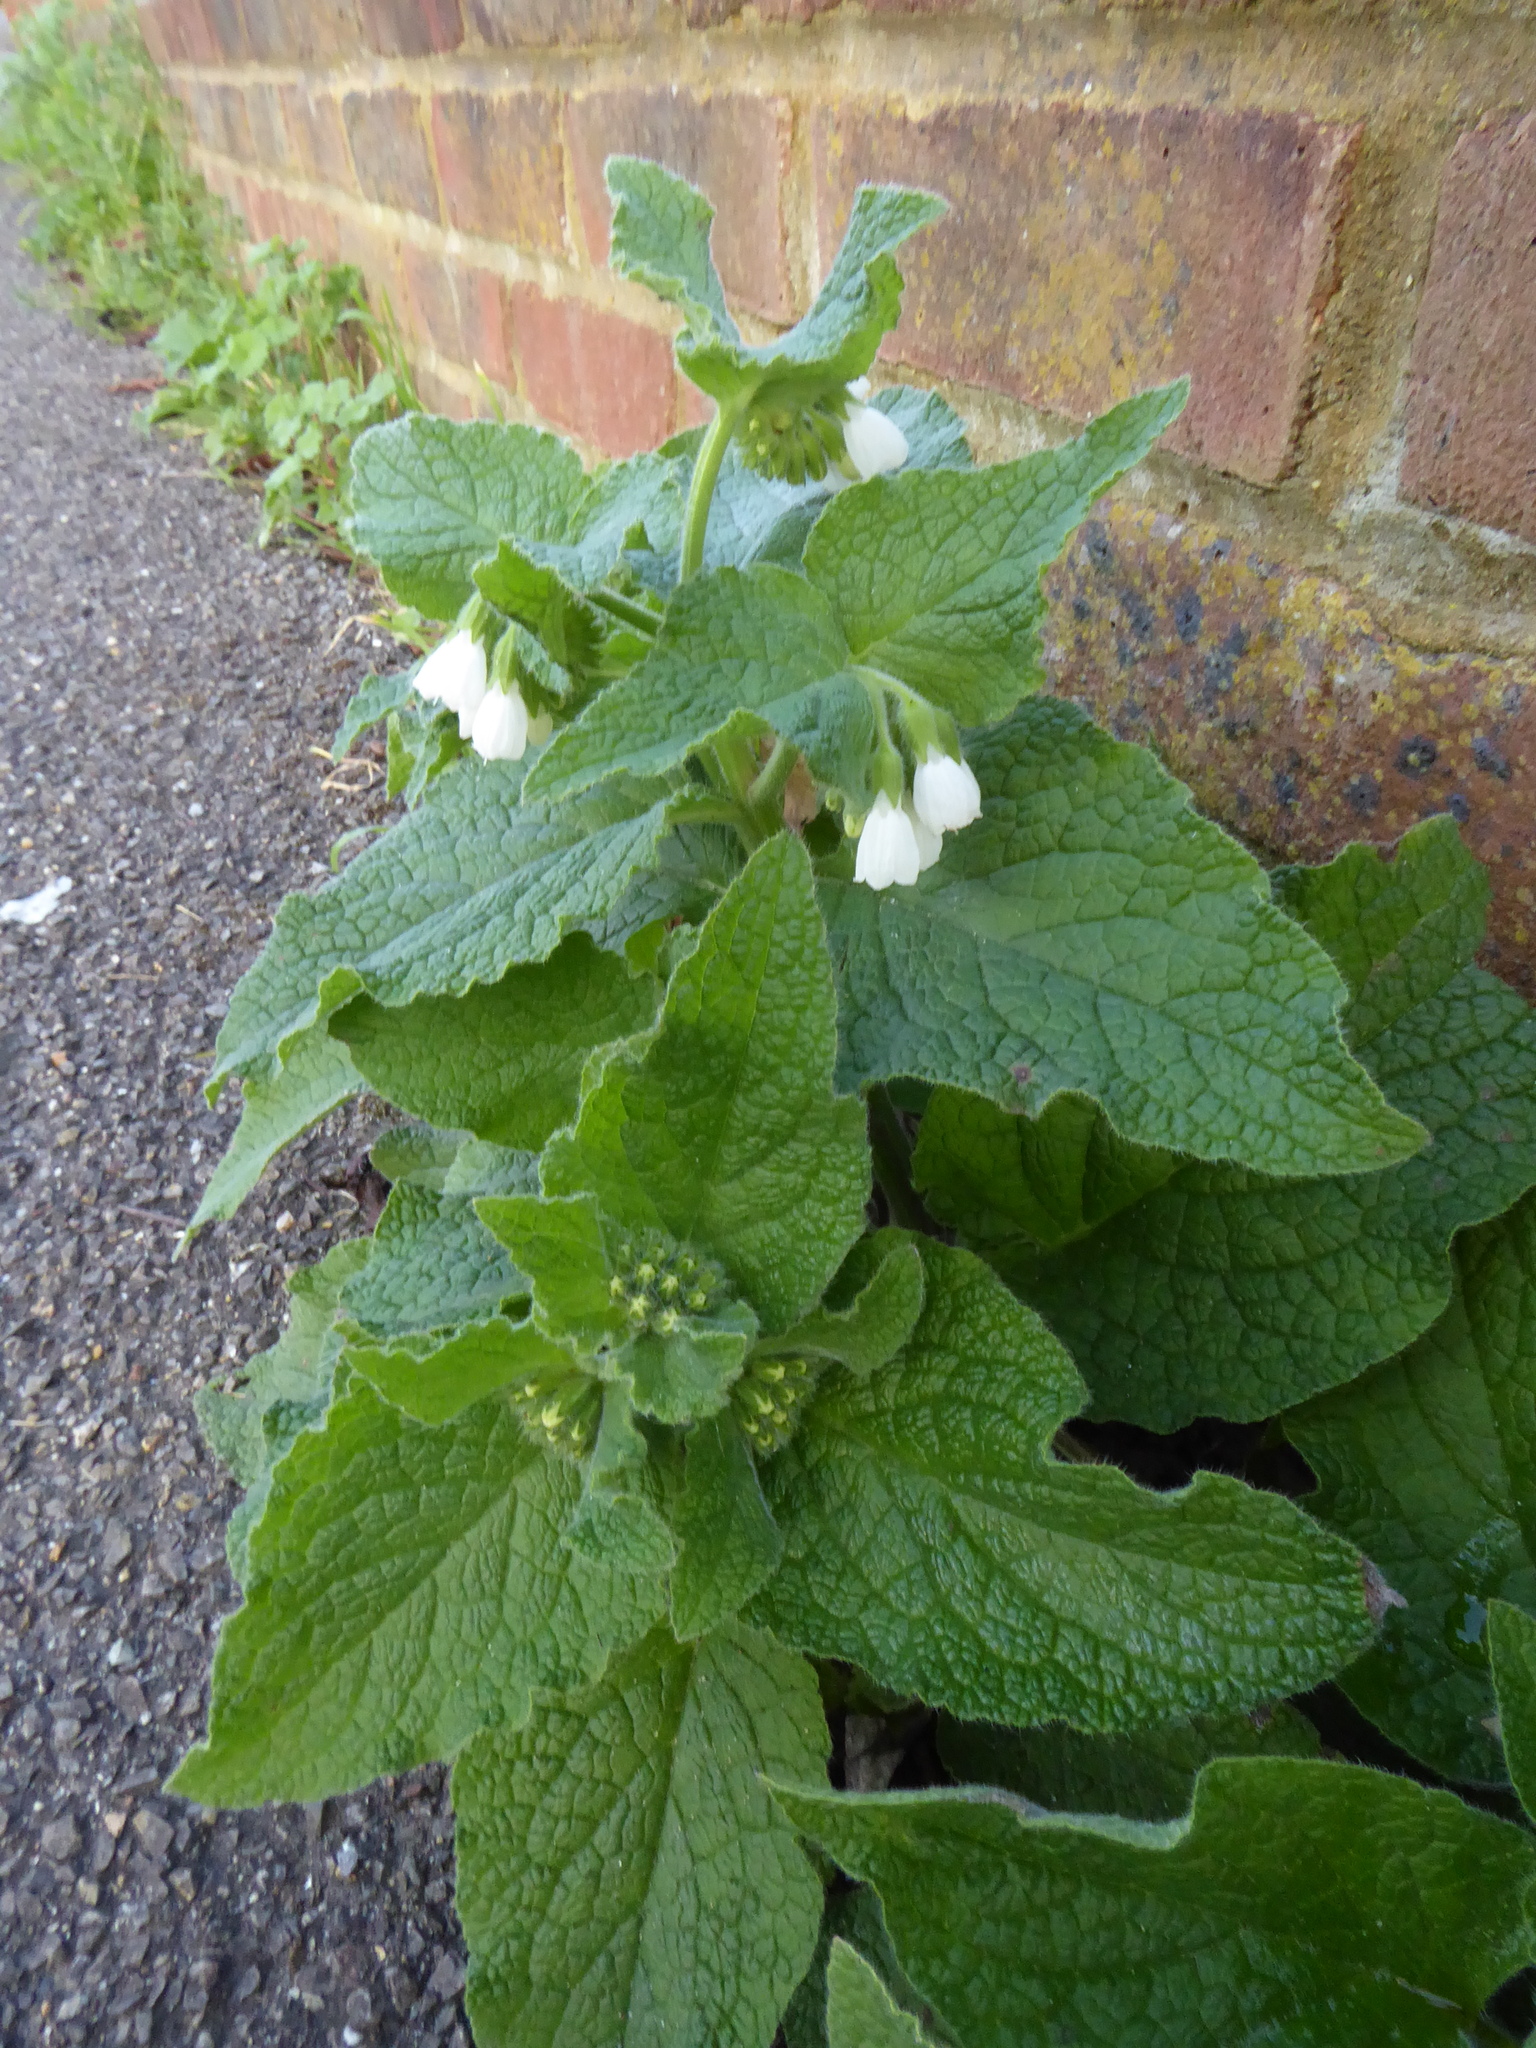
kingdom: Plantae
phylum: Tracheophyta
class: Magnoliopsida
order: Boraginales
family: Boraginaceae
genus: Symphytum
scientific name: Symphytum orientale
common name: White comfrey
